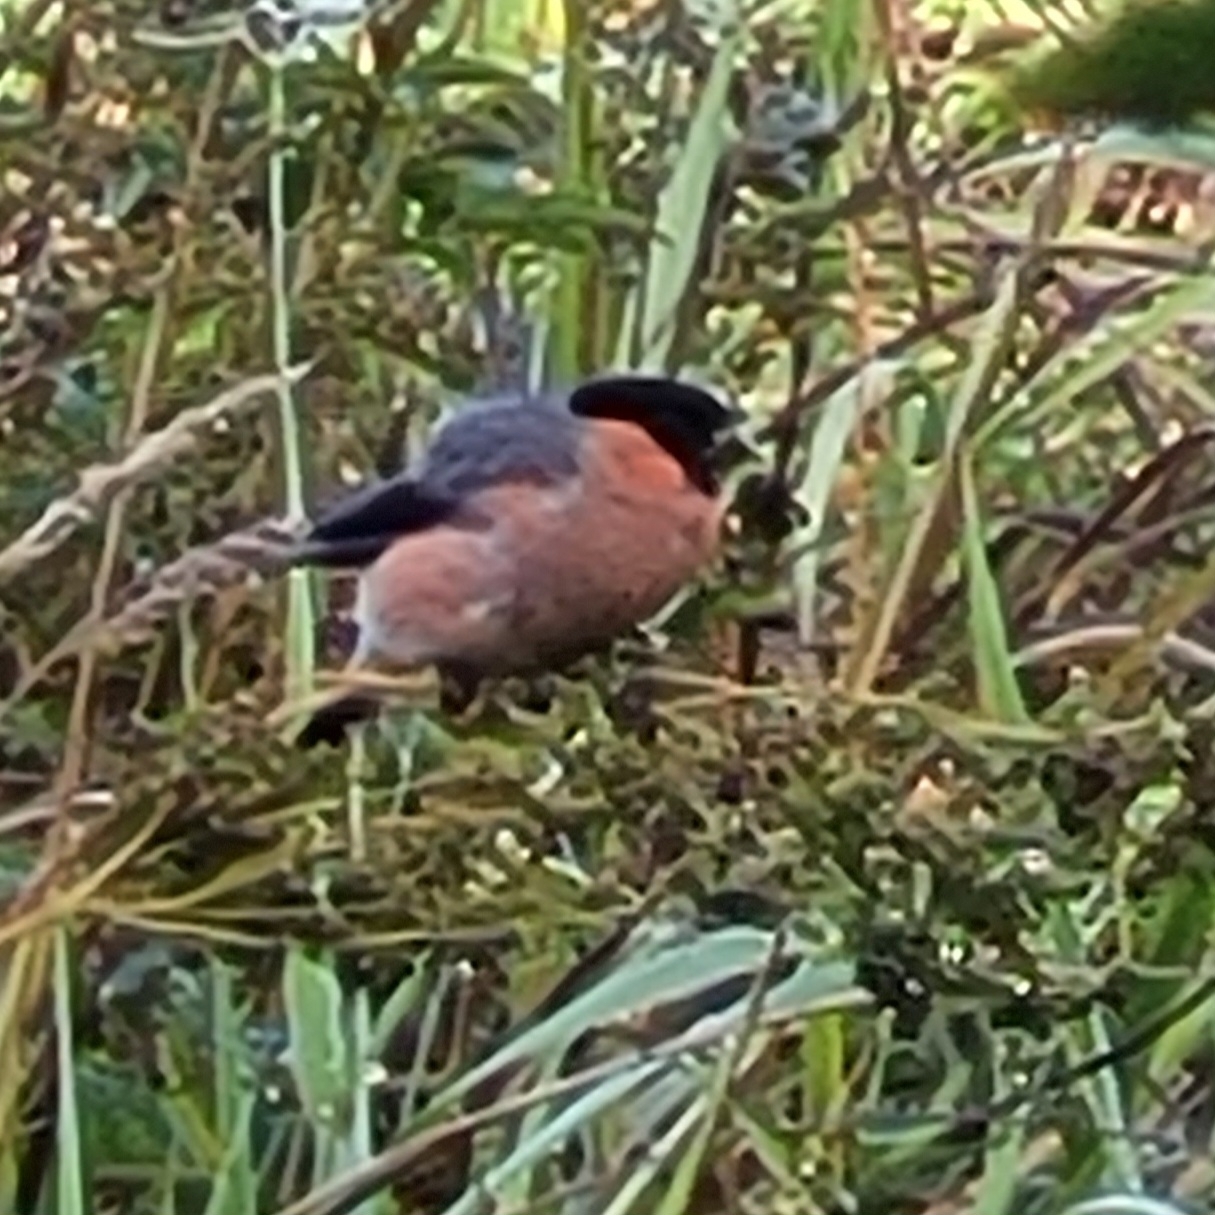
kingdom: Animalia
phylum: Chordata
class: Aves
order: Passeriformes
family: Fringillidae
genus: Pyrrhula
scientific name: Pyrrhula pyrrhula
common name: Eurasian bullfinch
